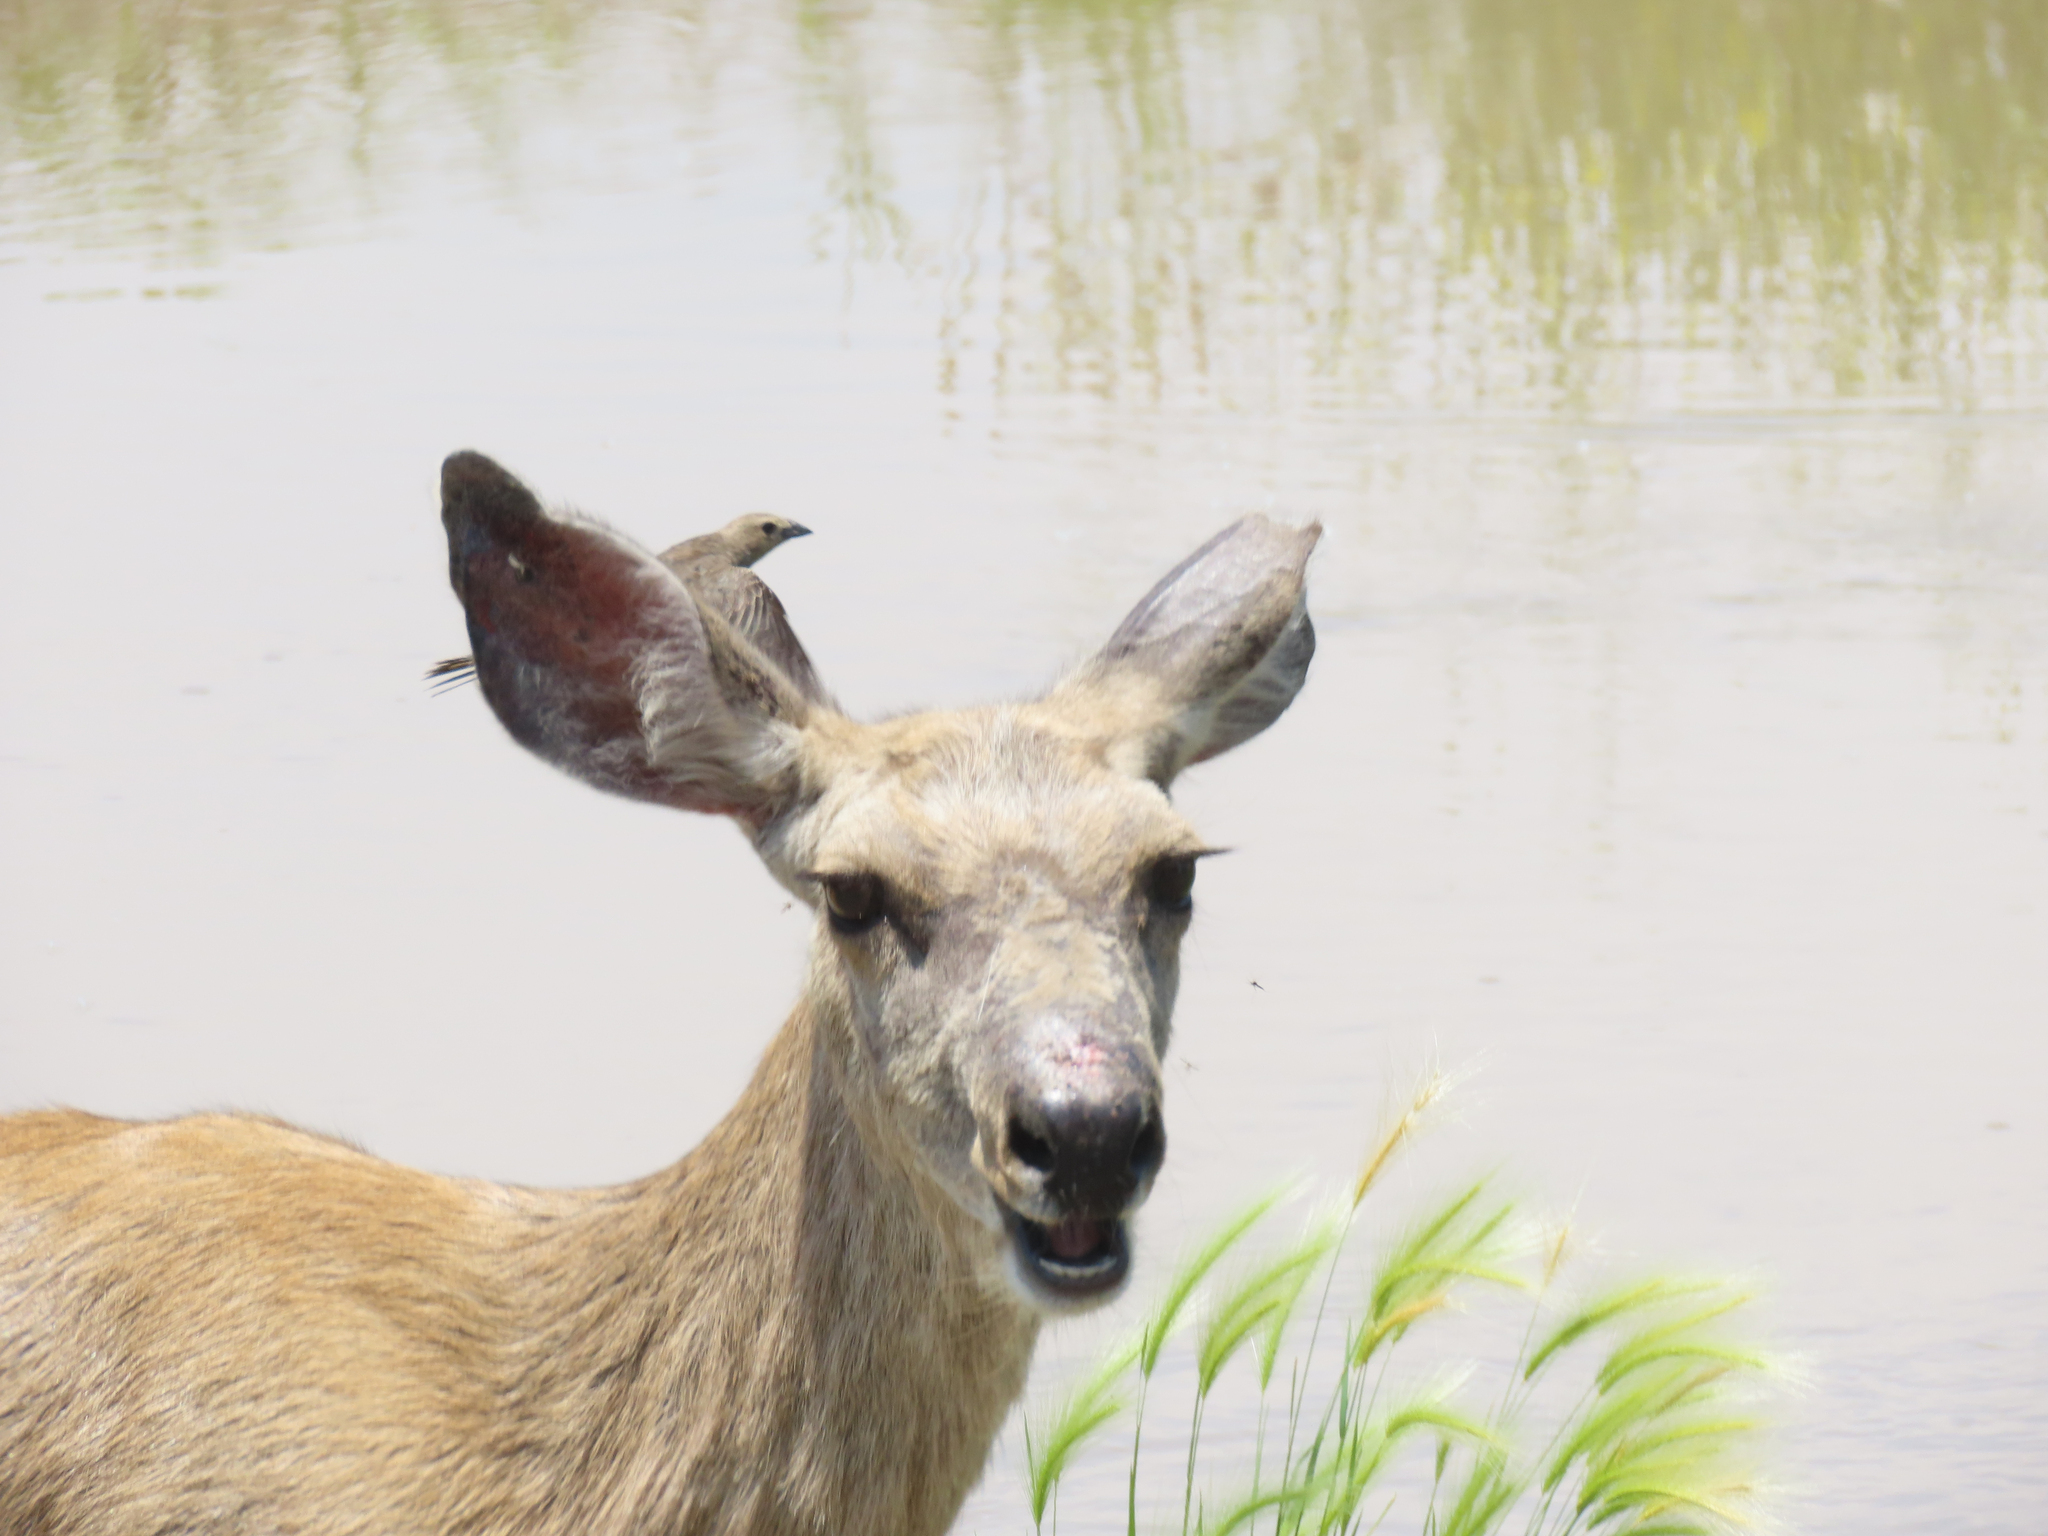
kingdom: Animalia
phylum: Chordata
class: Aves
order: Passeriformes
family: Icteridae
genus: Molothrus
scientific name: Molothrus ater
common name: Brown-headed cowbird
